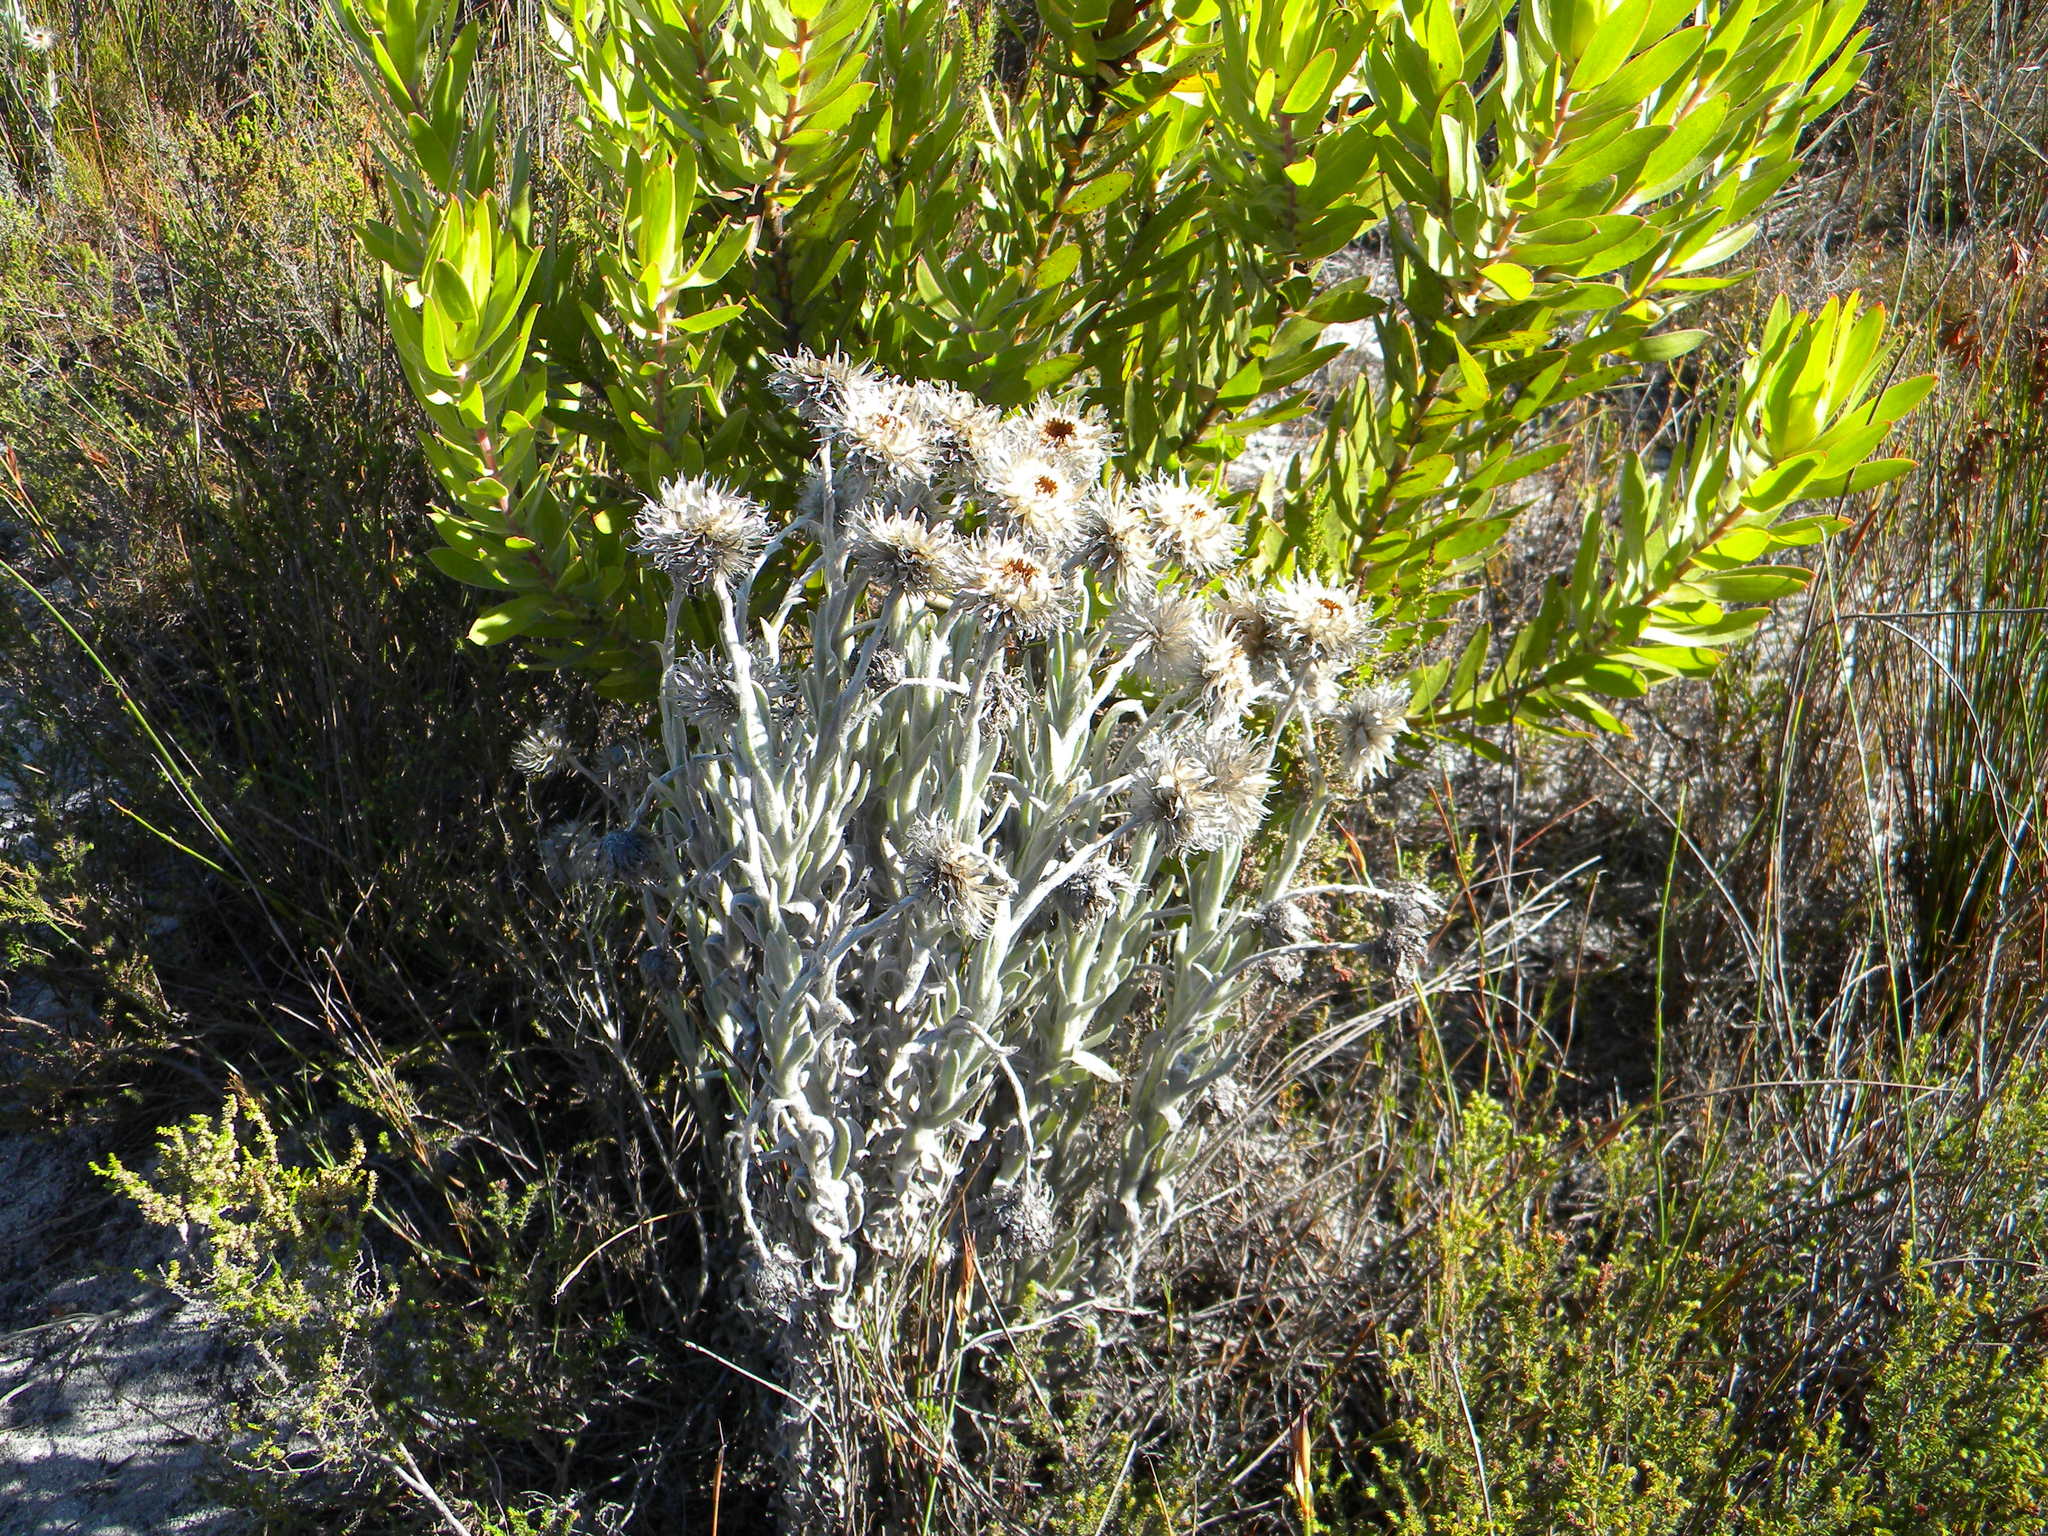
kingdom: Plantae
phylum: Tracheophyta
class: Magnoliopsida
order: Asterales
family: Asteraceae
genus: Syncarpha
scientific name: Syncarpha vestita
